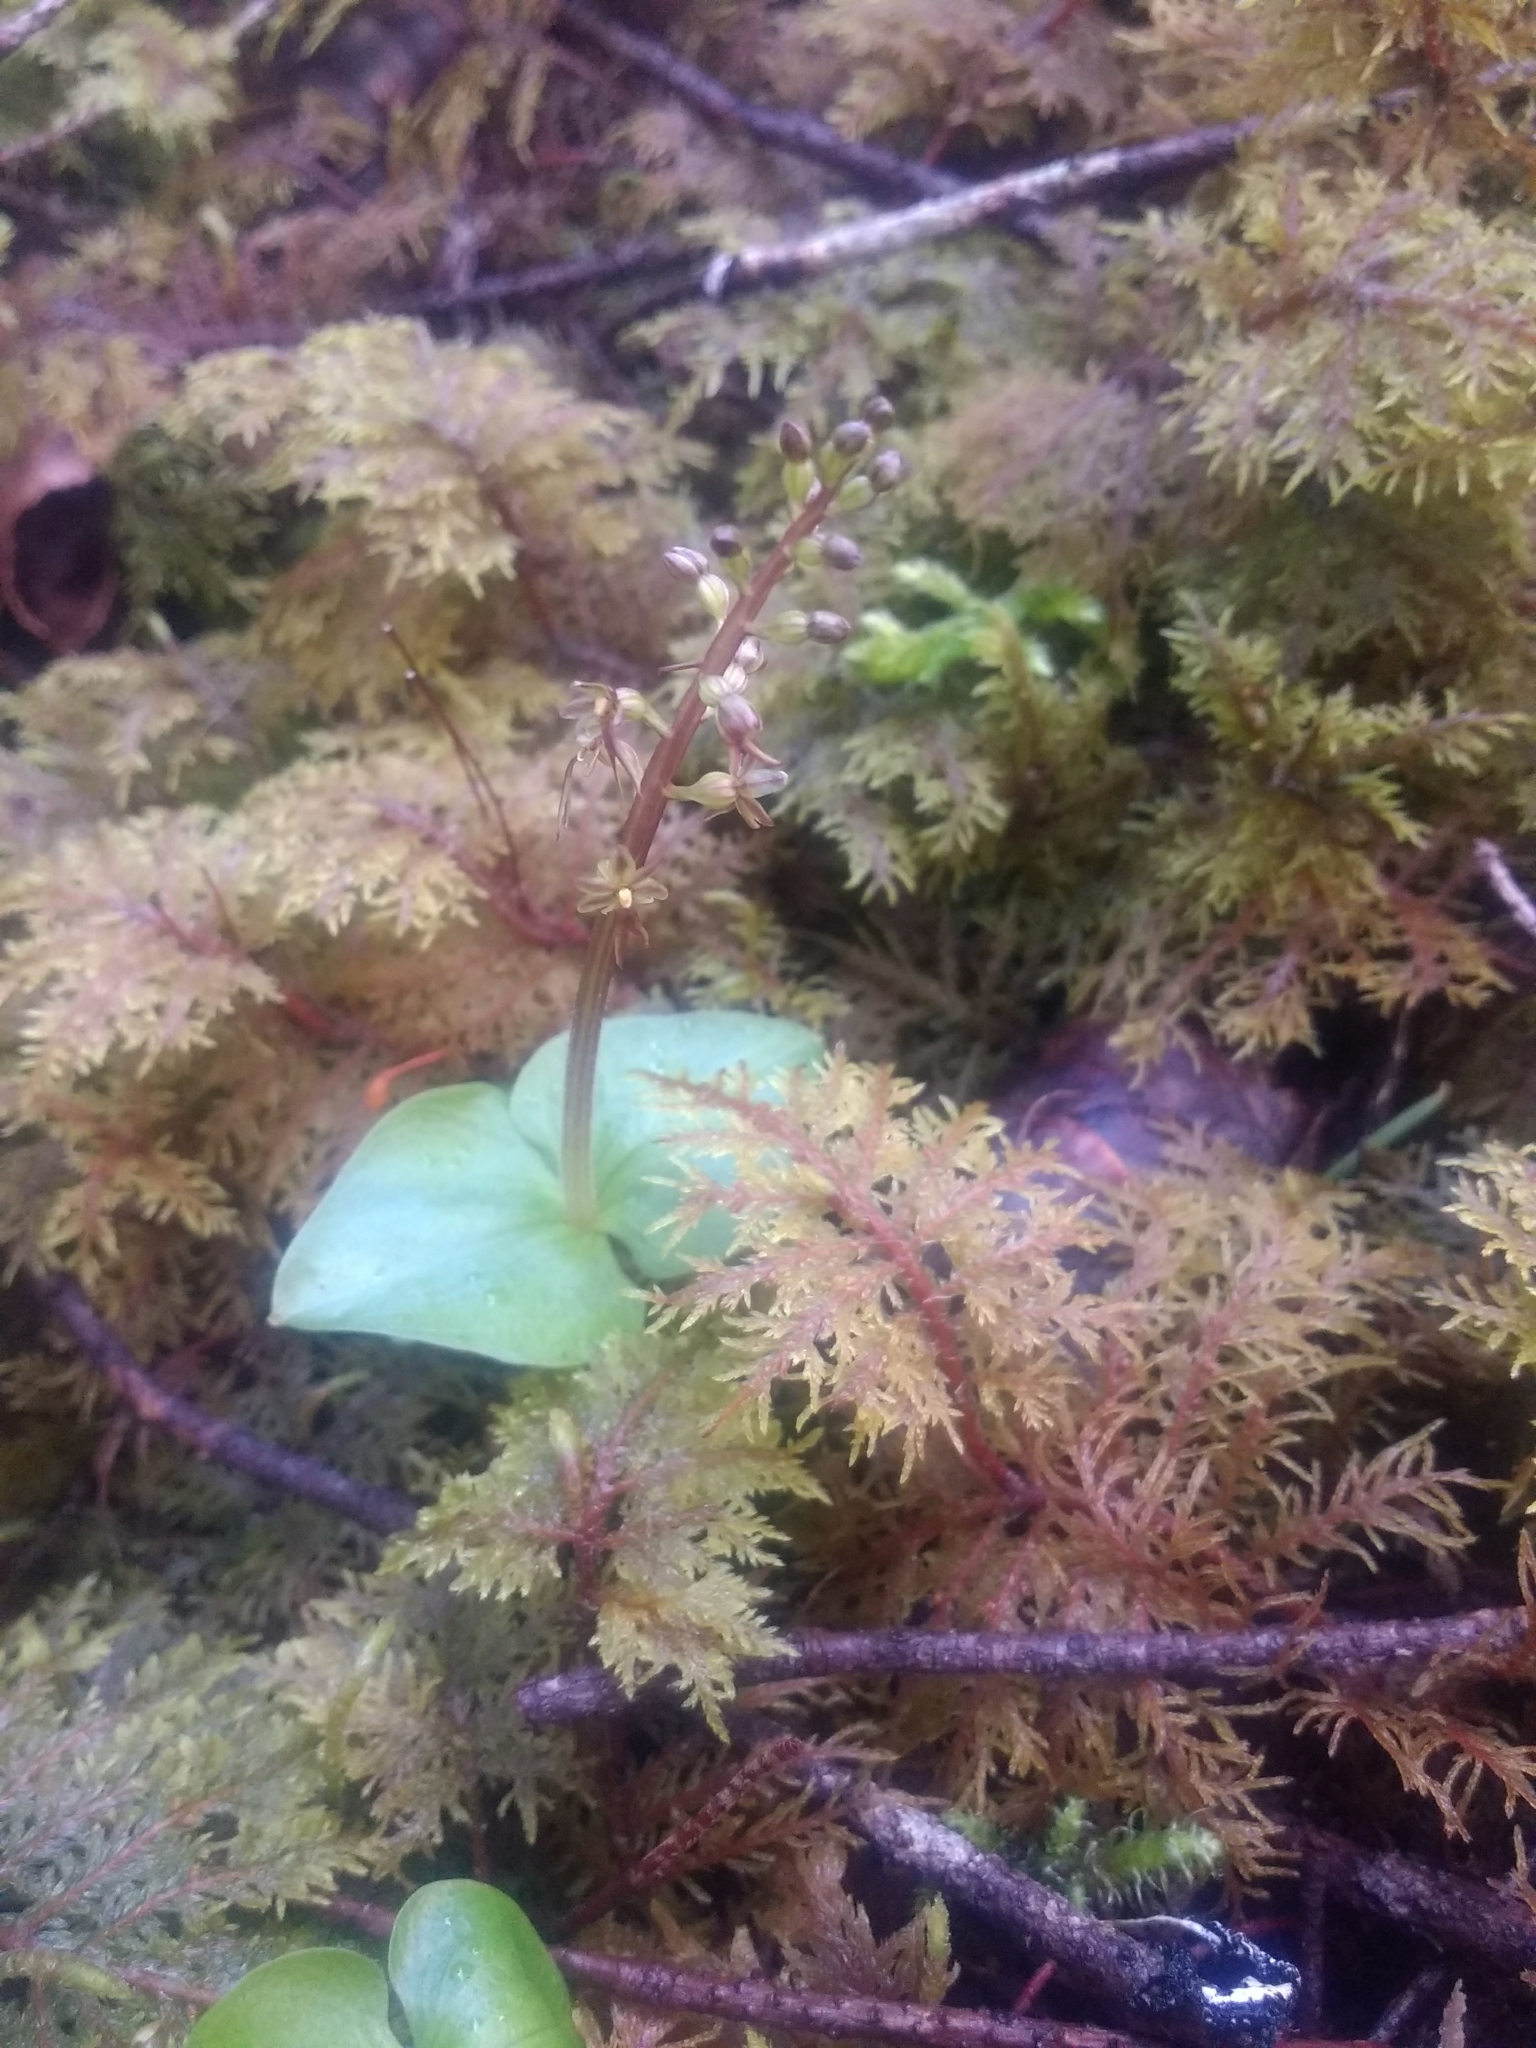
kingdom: Plantae
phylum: Tracheophyta
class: Liliopsida
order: Asparagales
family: Orchidaceae
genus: Neottia
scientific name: Neottia cordata
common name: Lesser twayblade
